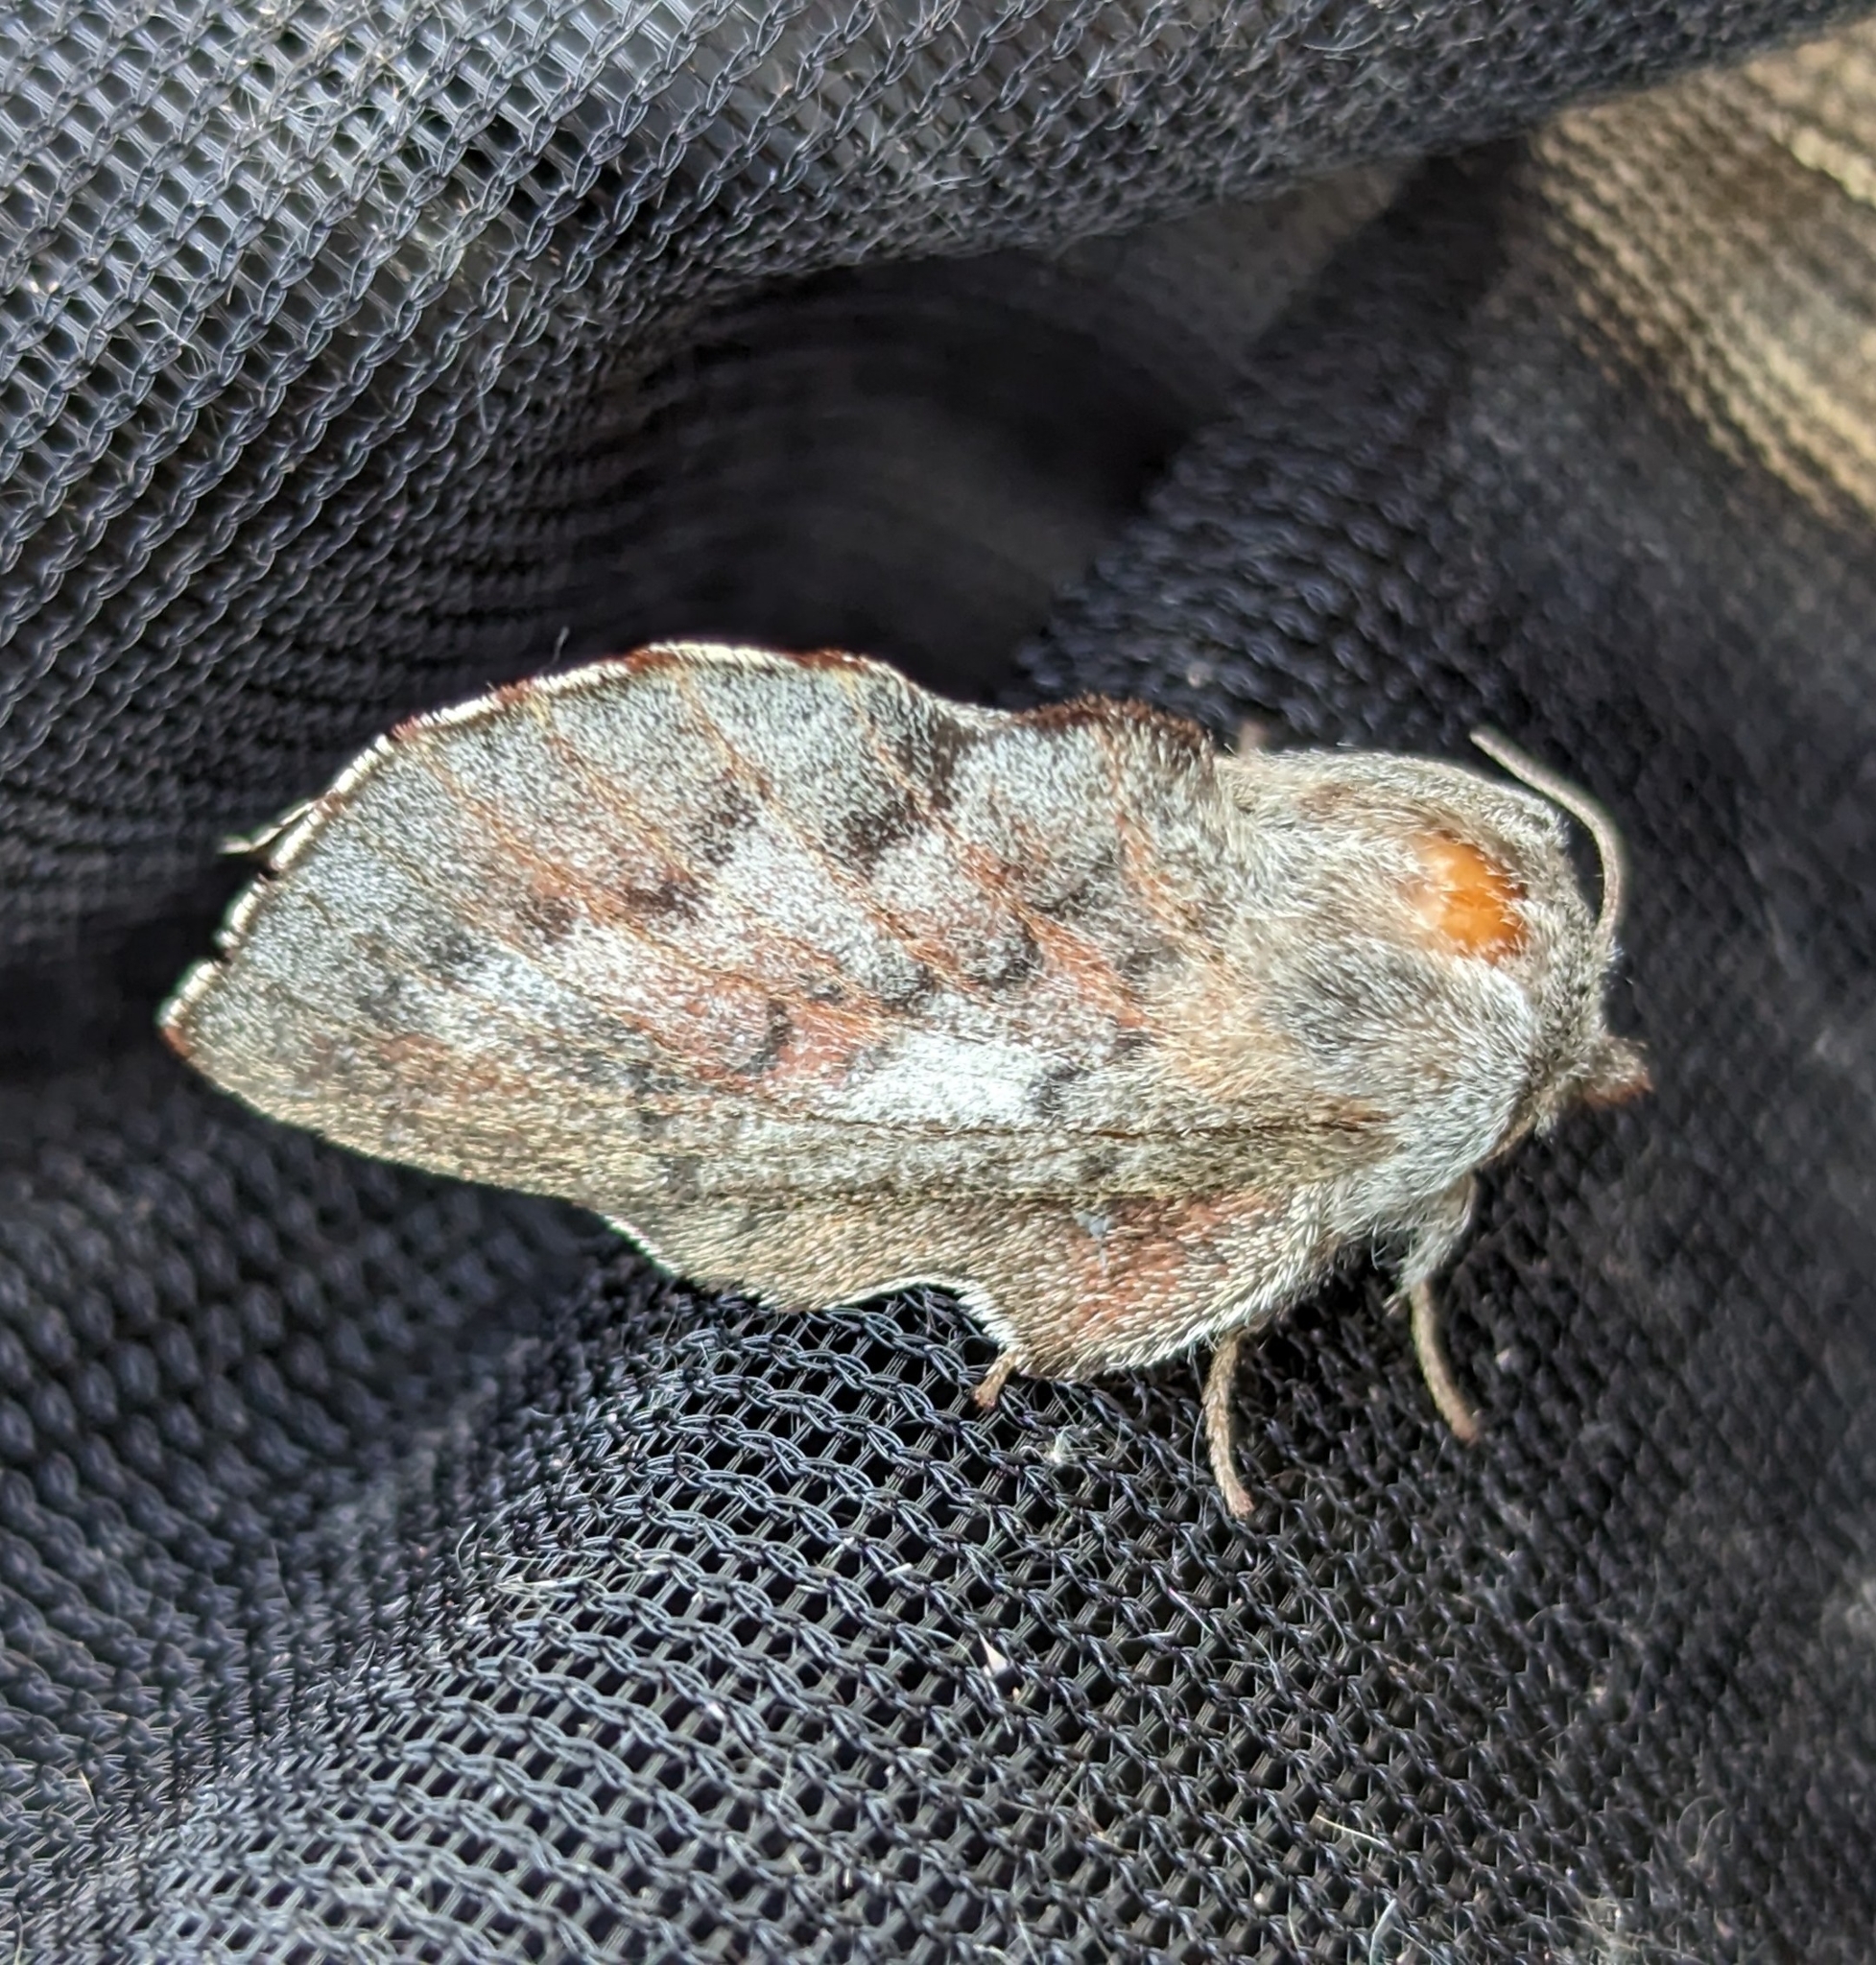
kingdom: Animalia
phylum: Arthropoda
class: Insecta
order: Lepidoptera
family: Lasiocampidae
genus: Phyllodesma
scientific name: Phyllodesma americana
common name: American lappet moth
